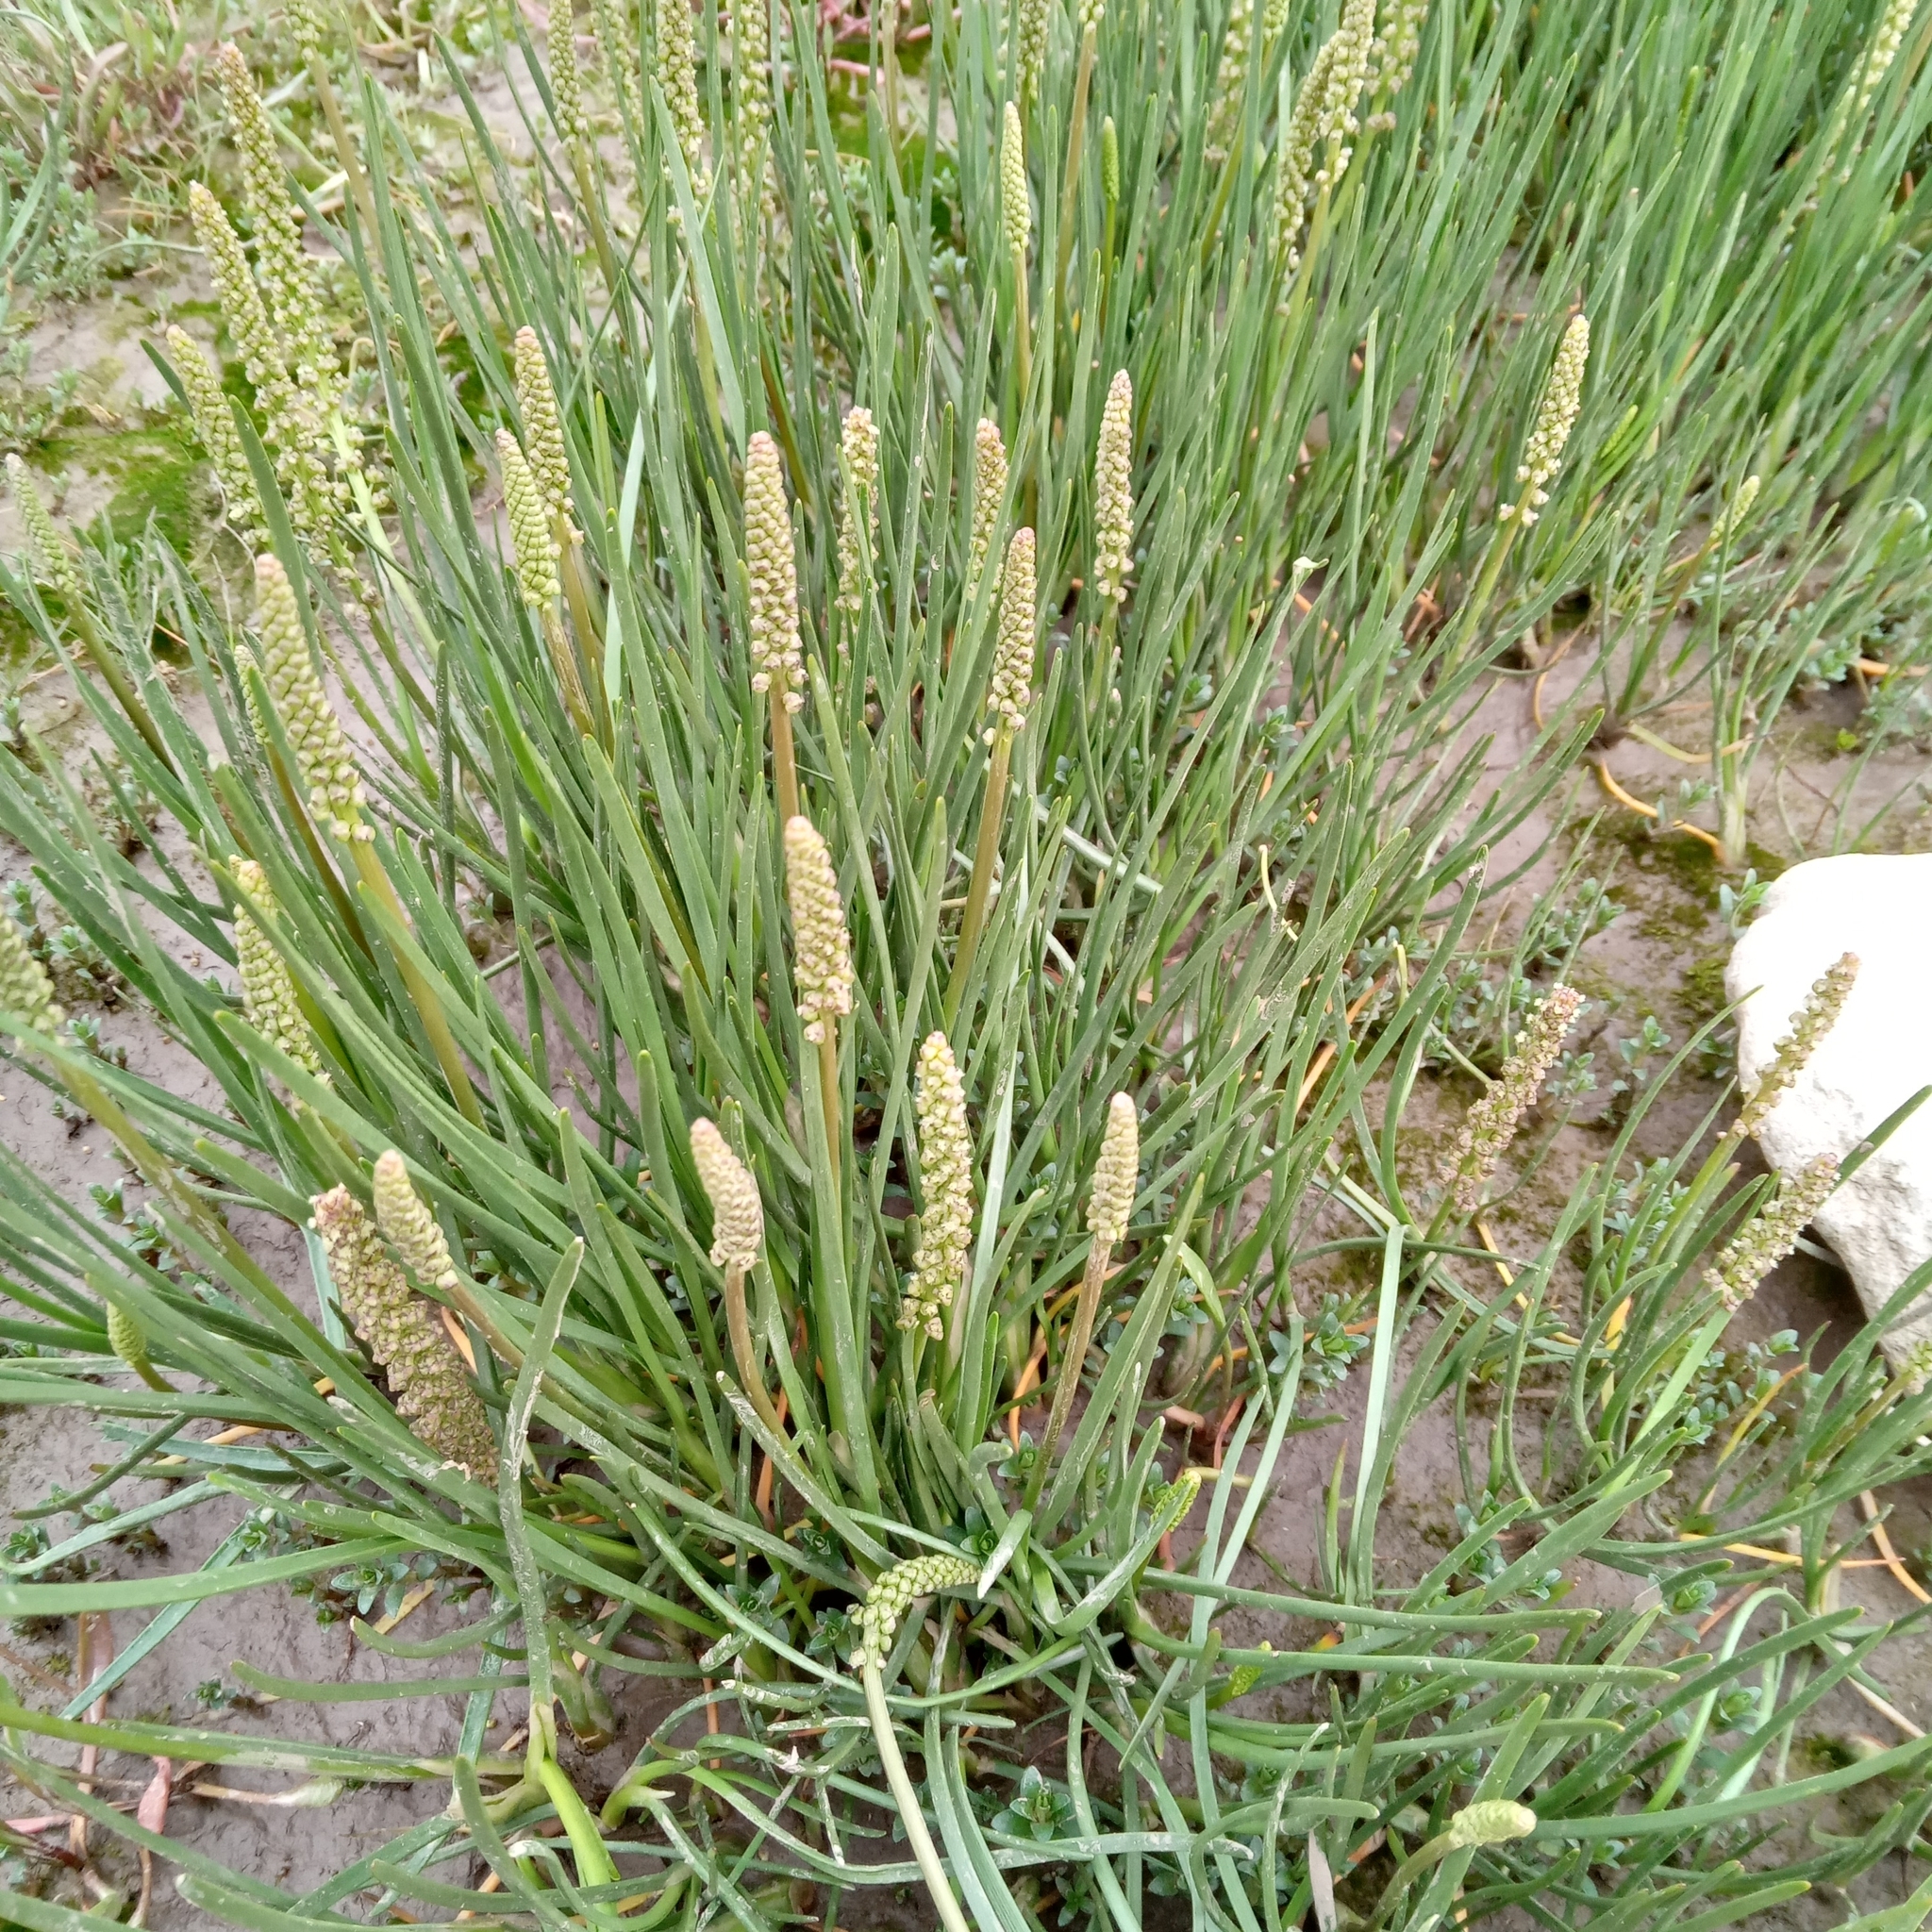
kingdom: Plantae
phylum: Tracheophyta
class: Liliopsida
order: Alismatales
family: Juncaginaceae
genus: Triglochin
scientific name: Triglochin maritima
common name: Sea arrowgrass
